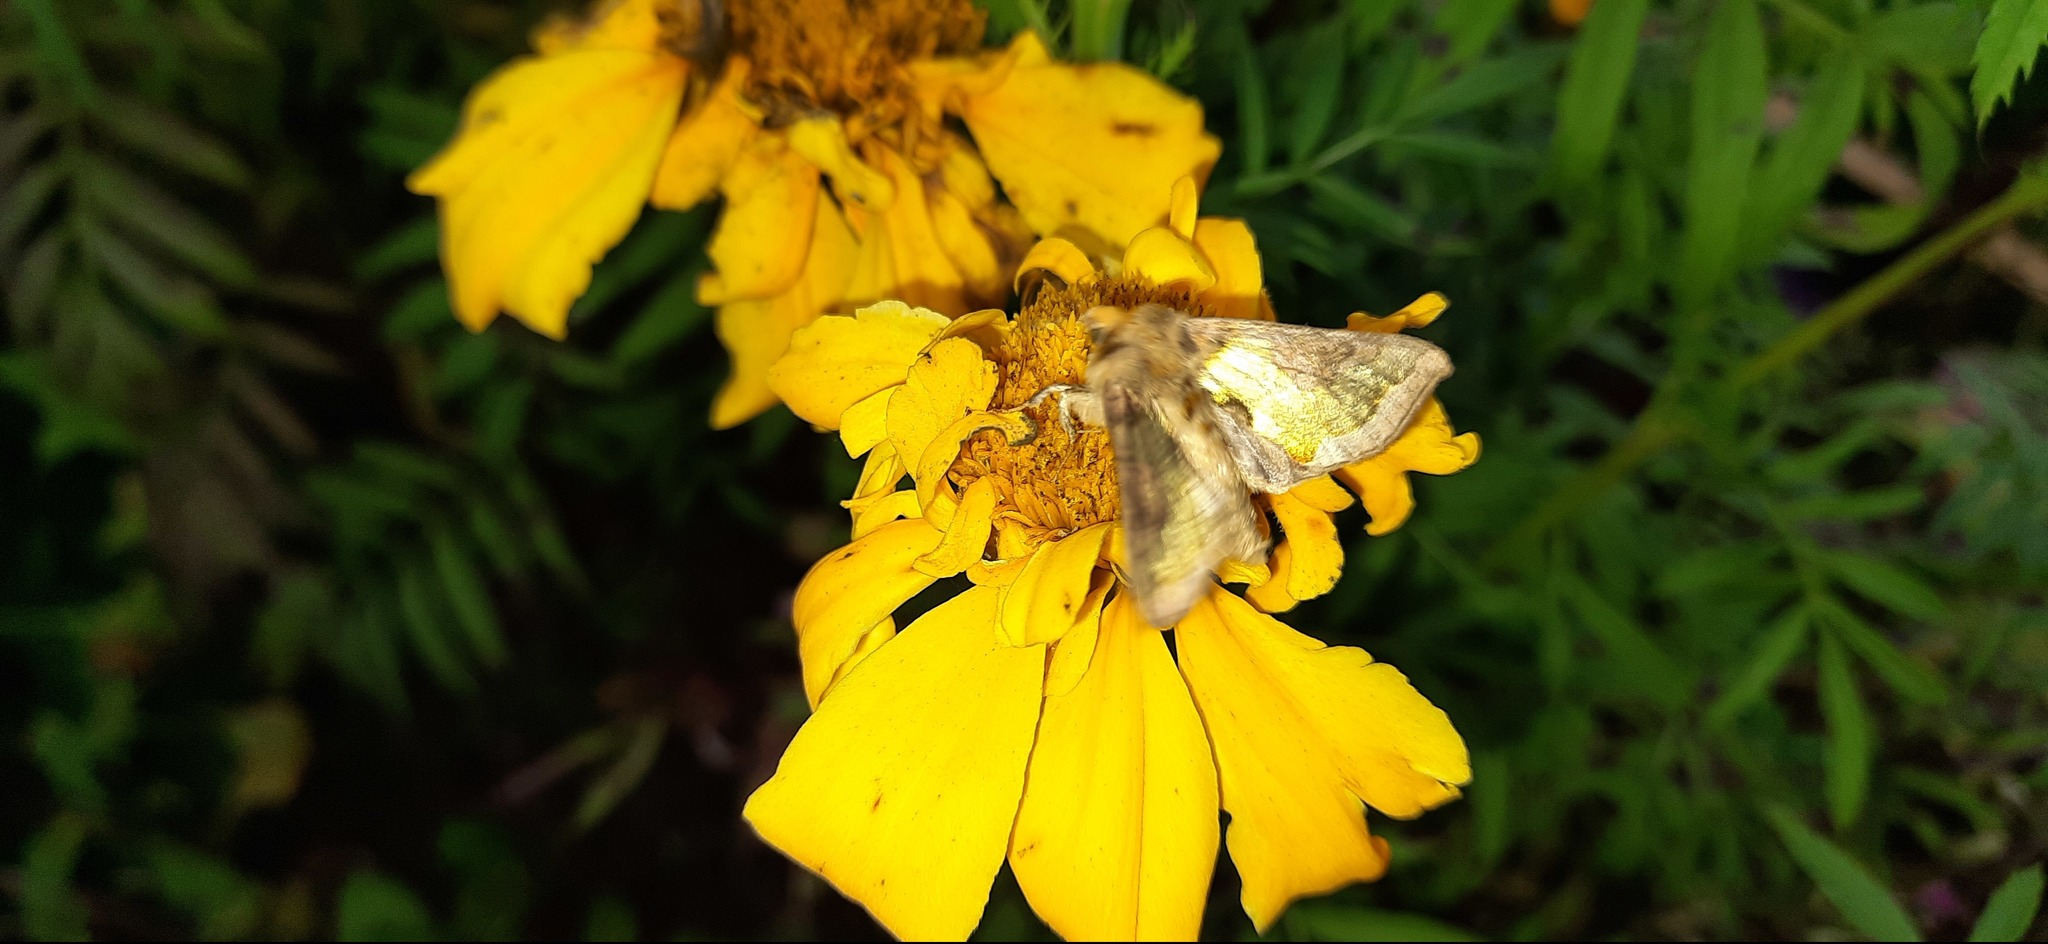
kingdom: Animalia
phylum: Arthropoda
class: Insecta
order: Lepidoptera
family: Noctuidae
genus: Diachrysia
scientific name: Diachrysia
